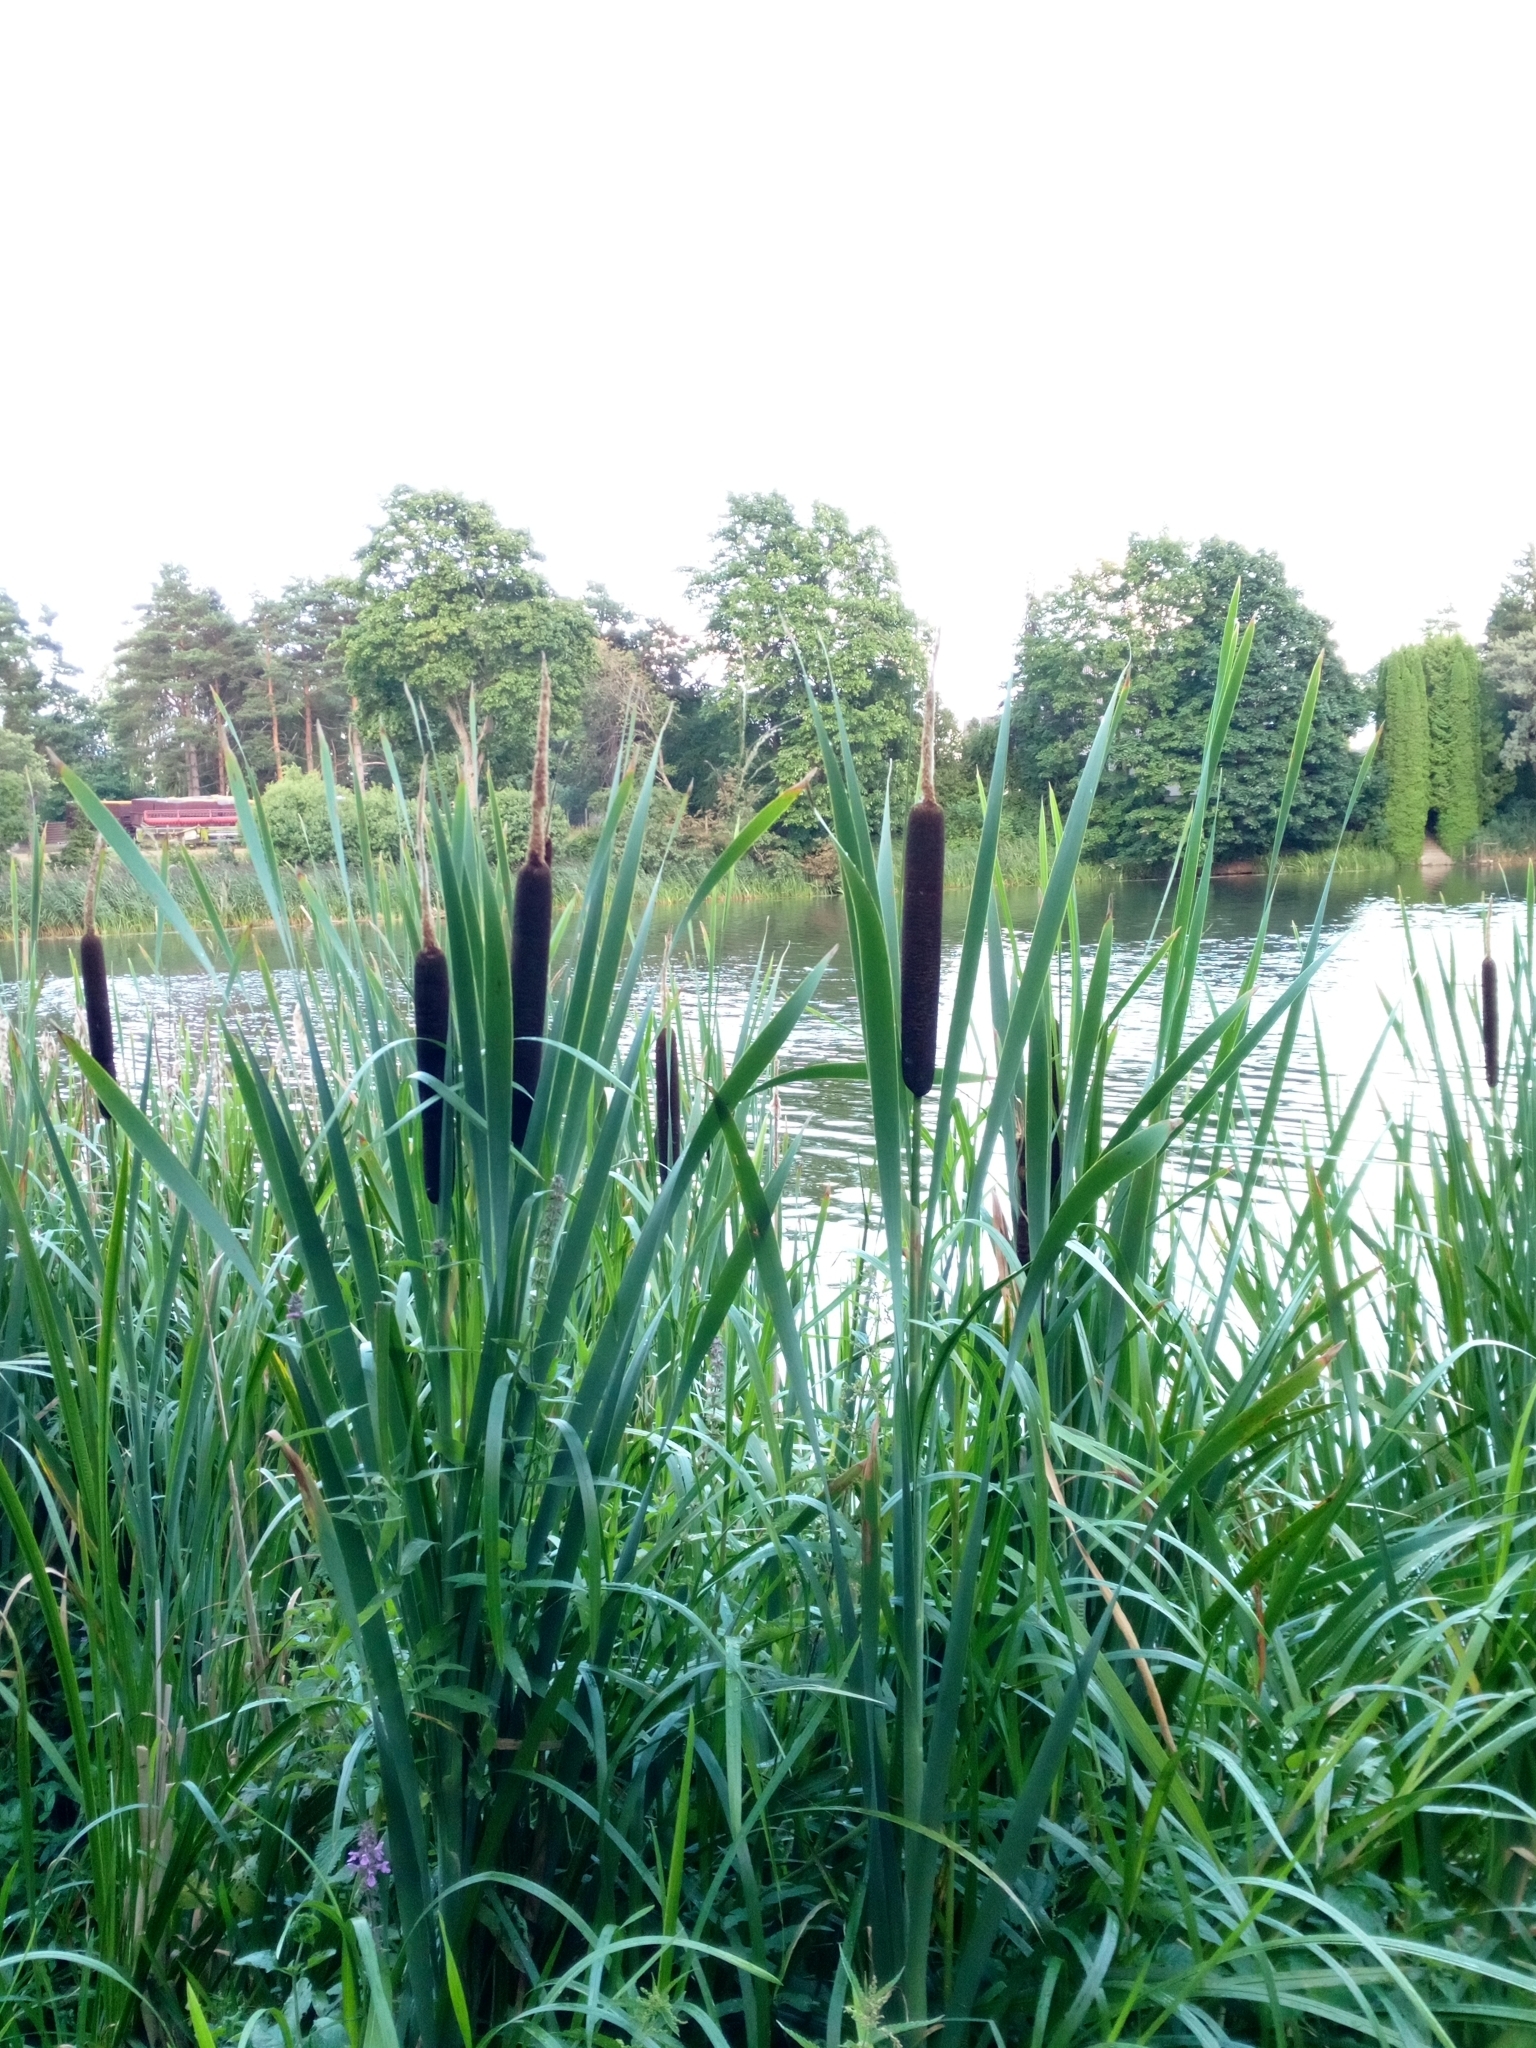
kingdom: Plantae
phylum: Tracheophyta
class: Liliopsida
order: Poales
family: Typhaceae
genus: Typha
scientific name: Typha latifolia
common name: Broadleaf cattail
